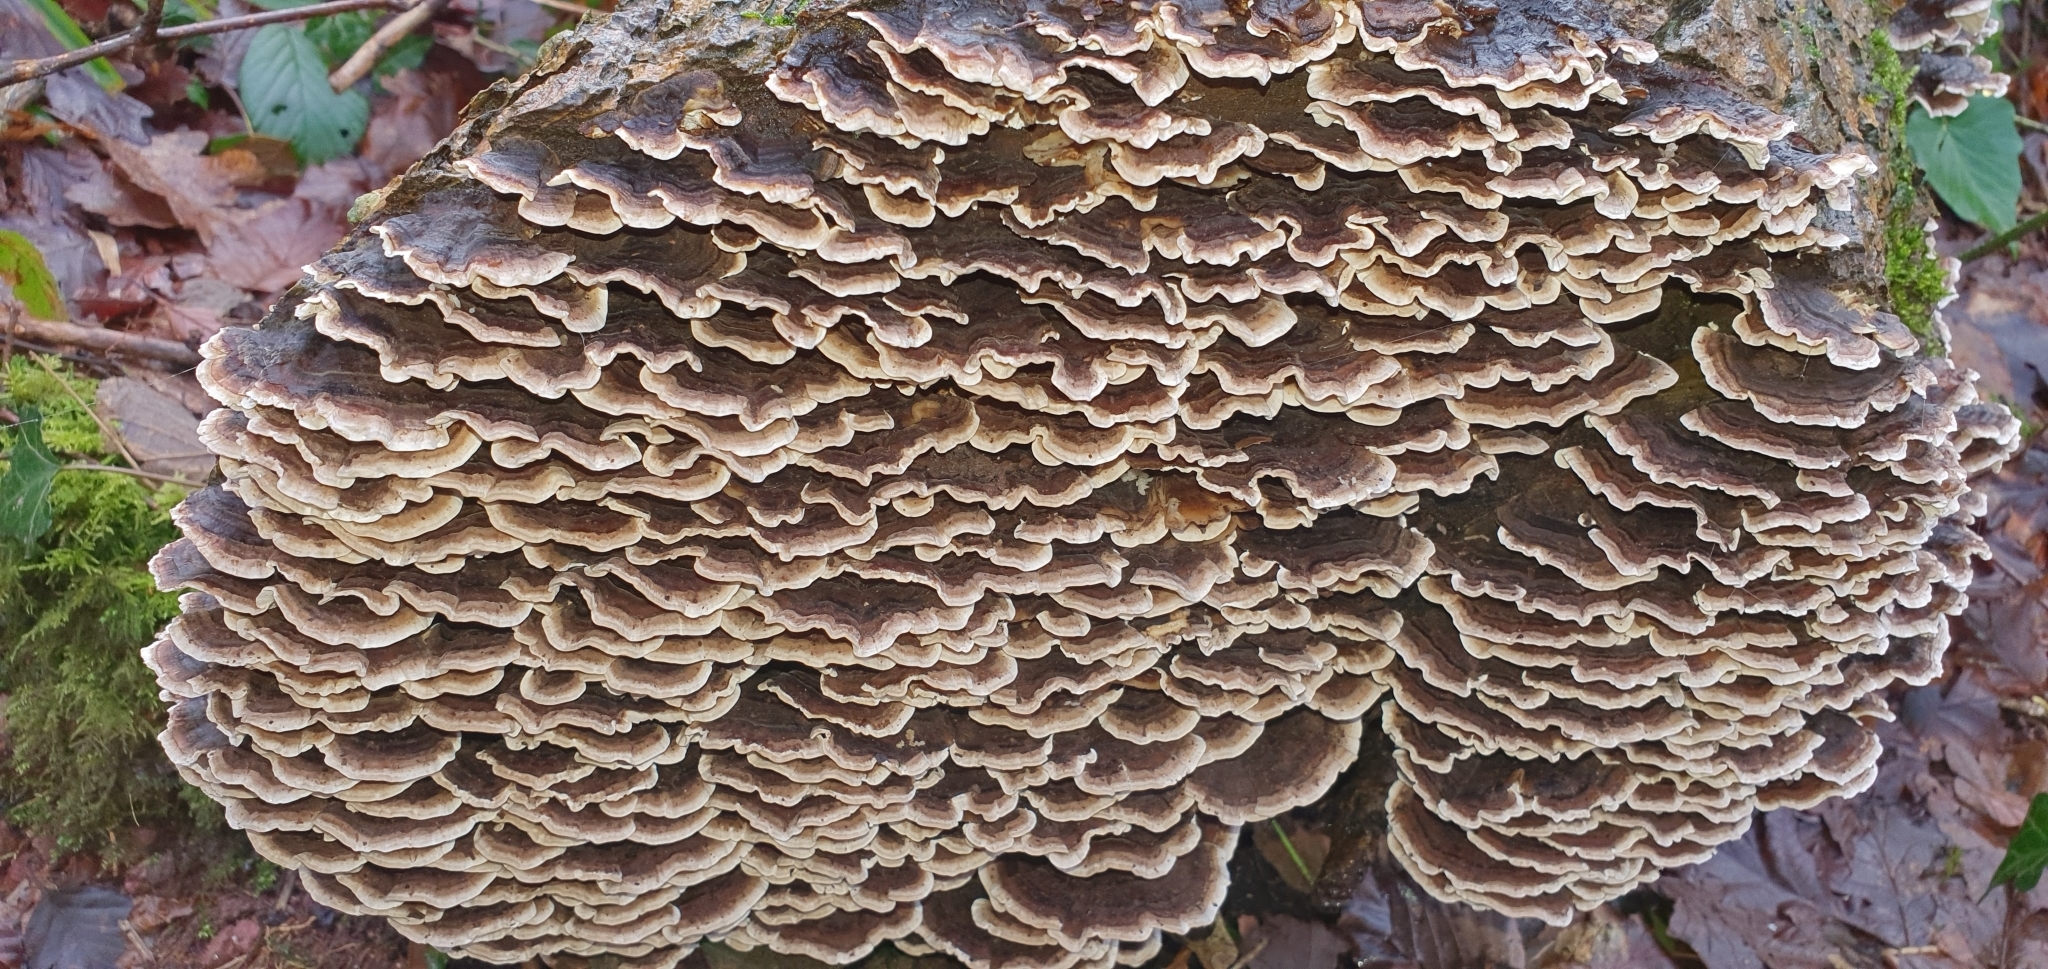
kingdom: Fungi
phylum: Basidiomycota
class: Agaricomycetes
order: Polyporales
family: Polyporaceae
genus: Trametes
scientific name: Trametes versicolor
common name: Turkeytail
